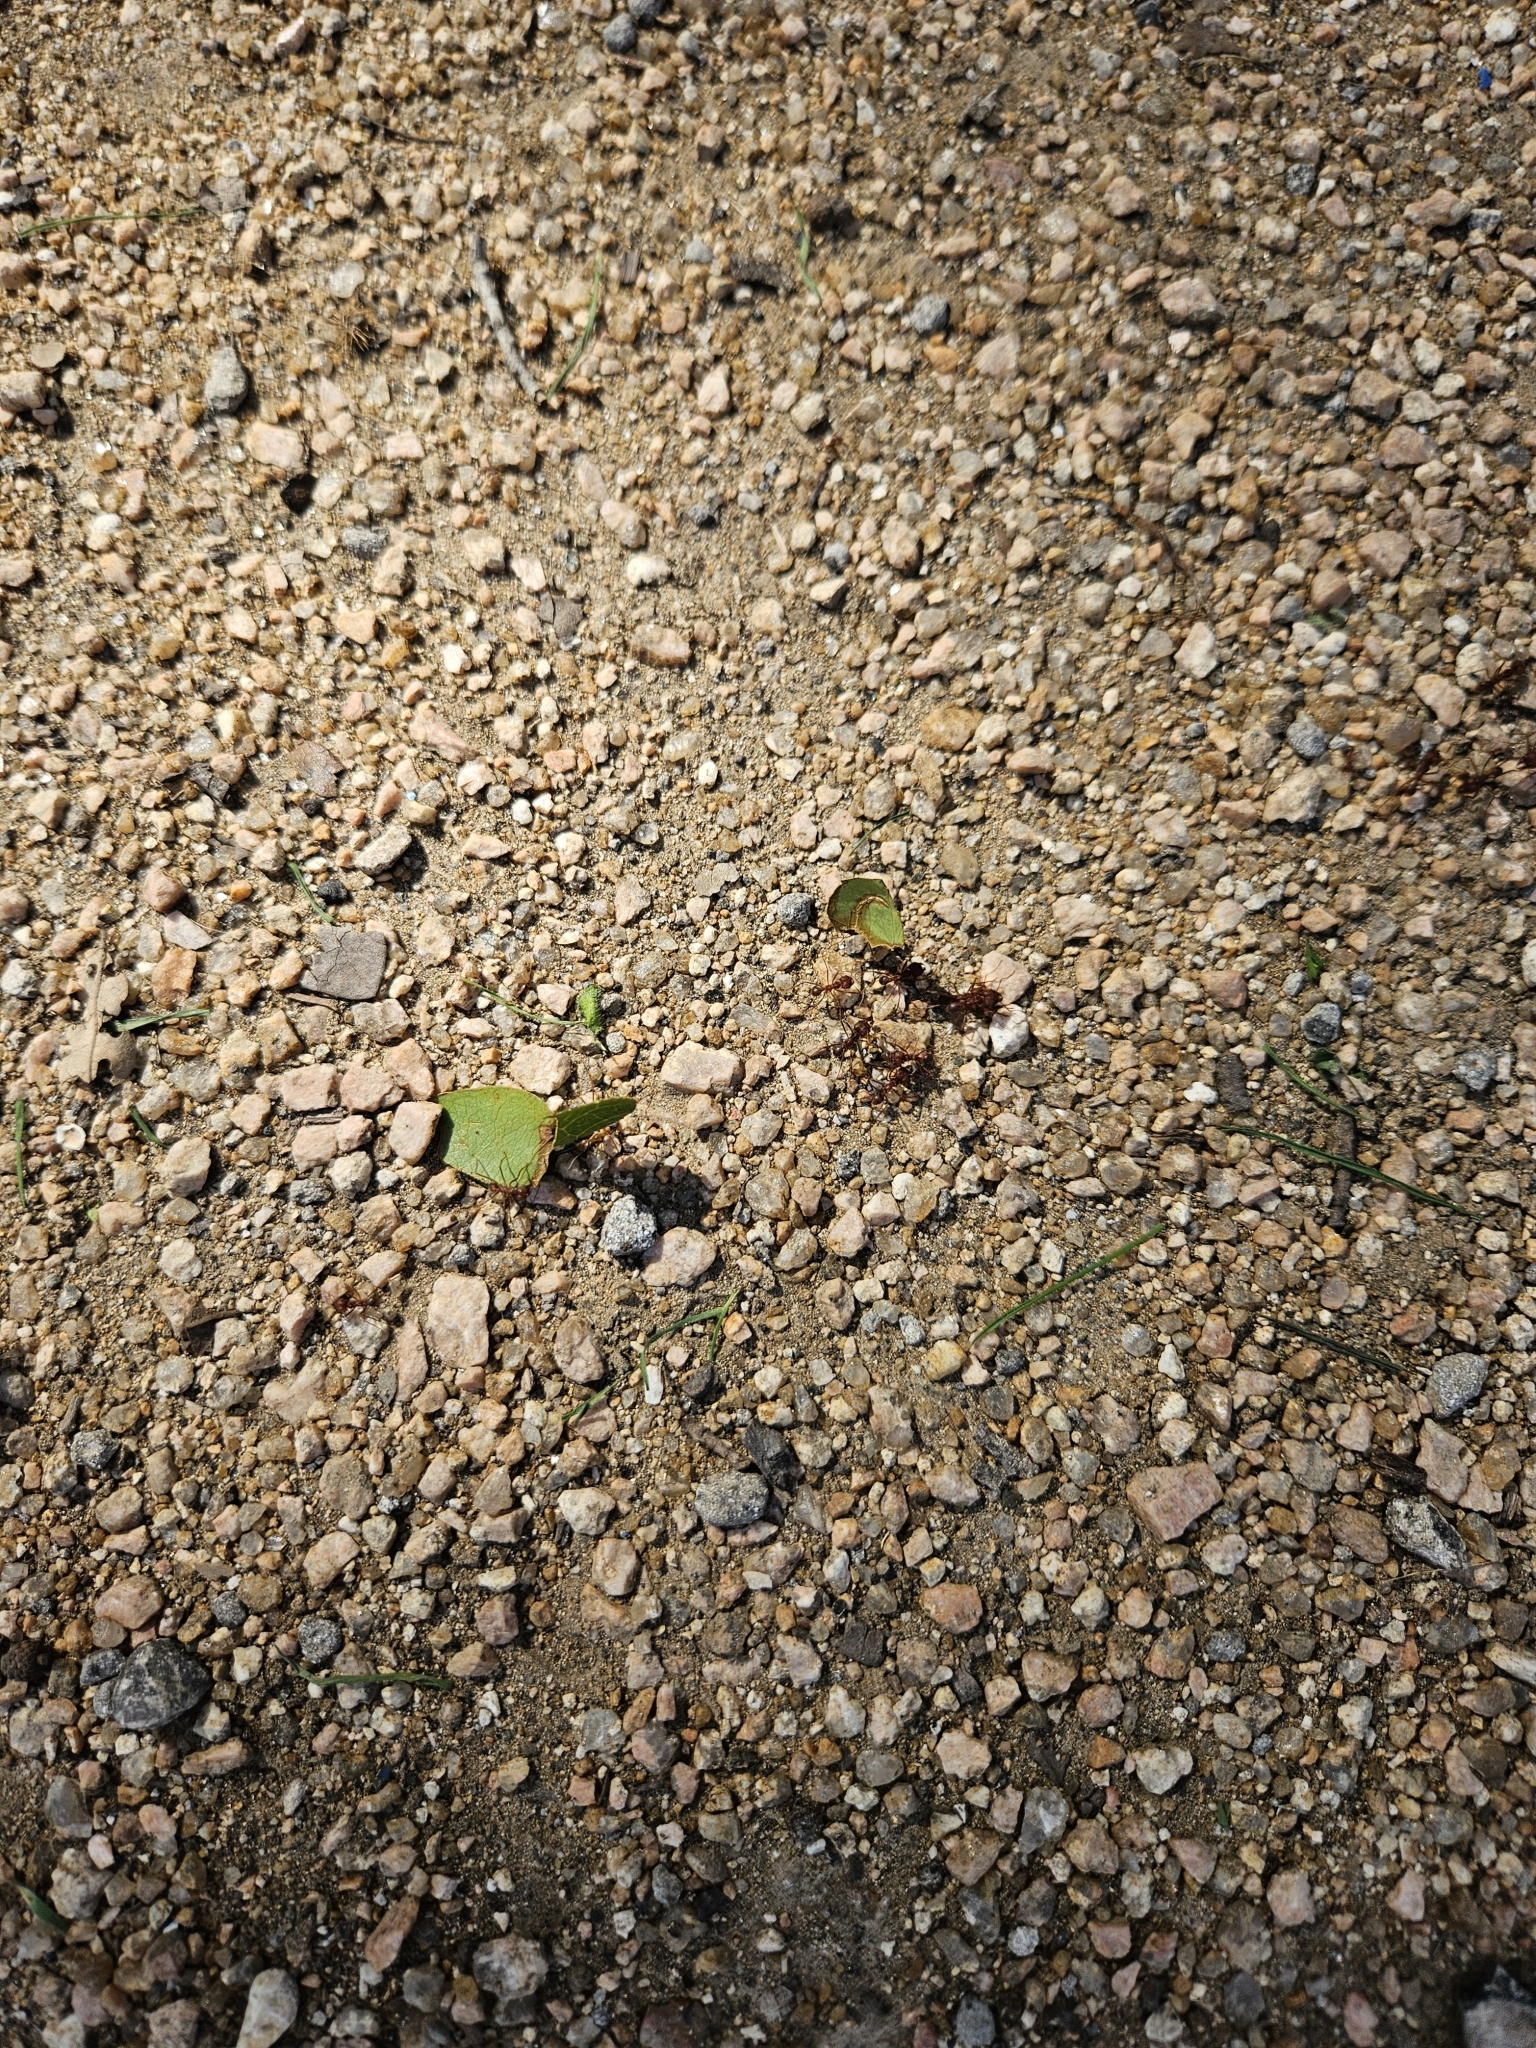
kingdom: Animalia
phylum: Arthropoda
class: Insecta
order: Hymenoptera
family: Formicidae
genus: Atta
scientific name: Atta texana
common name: Texas leafcutting ant
